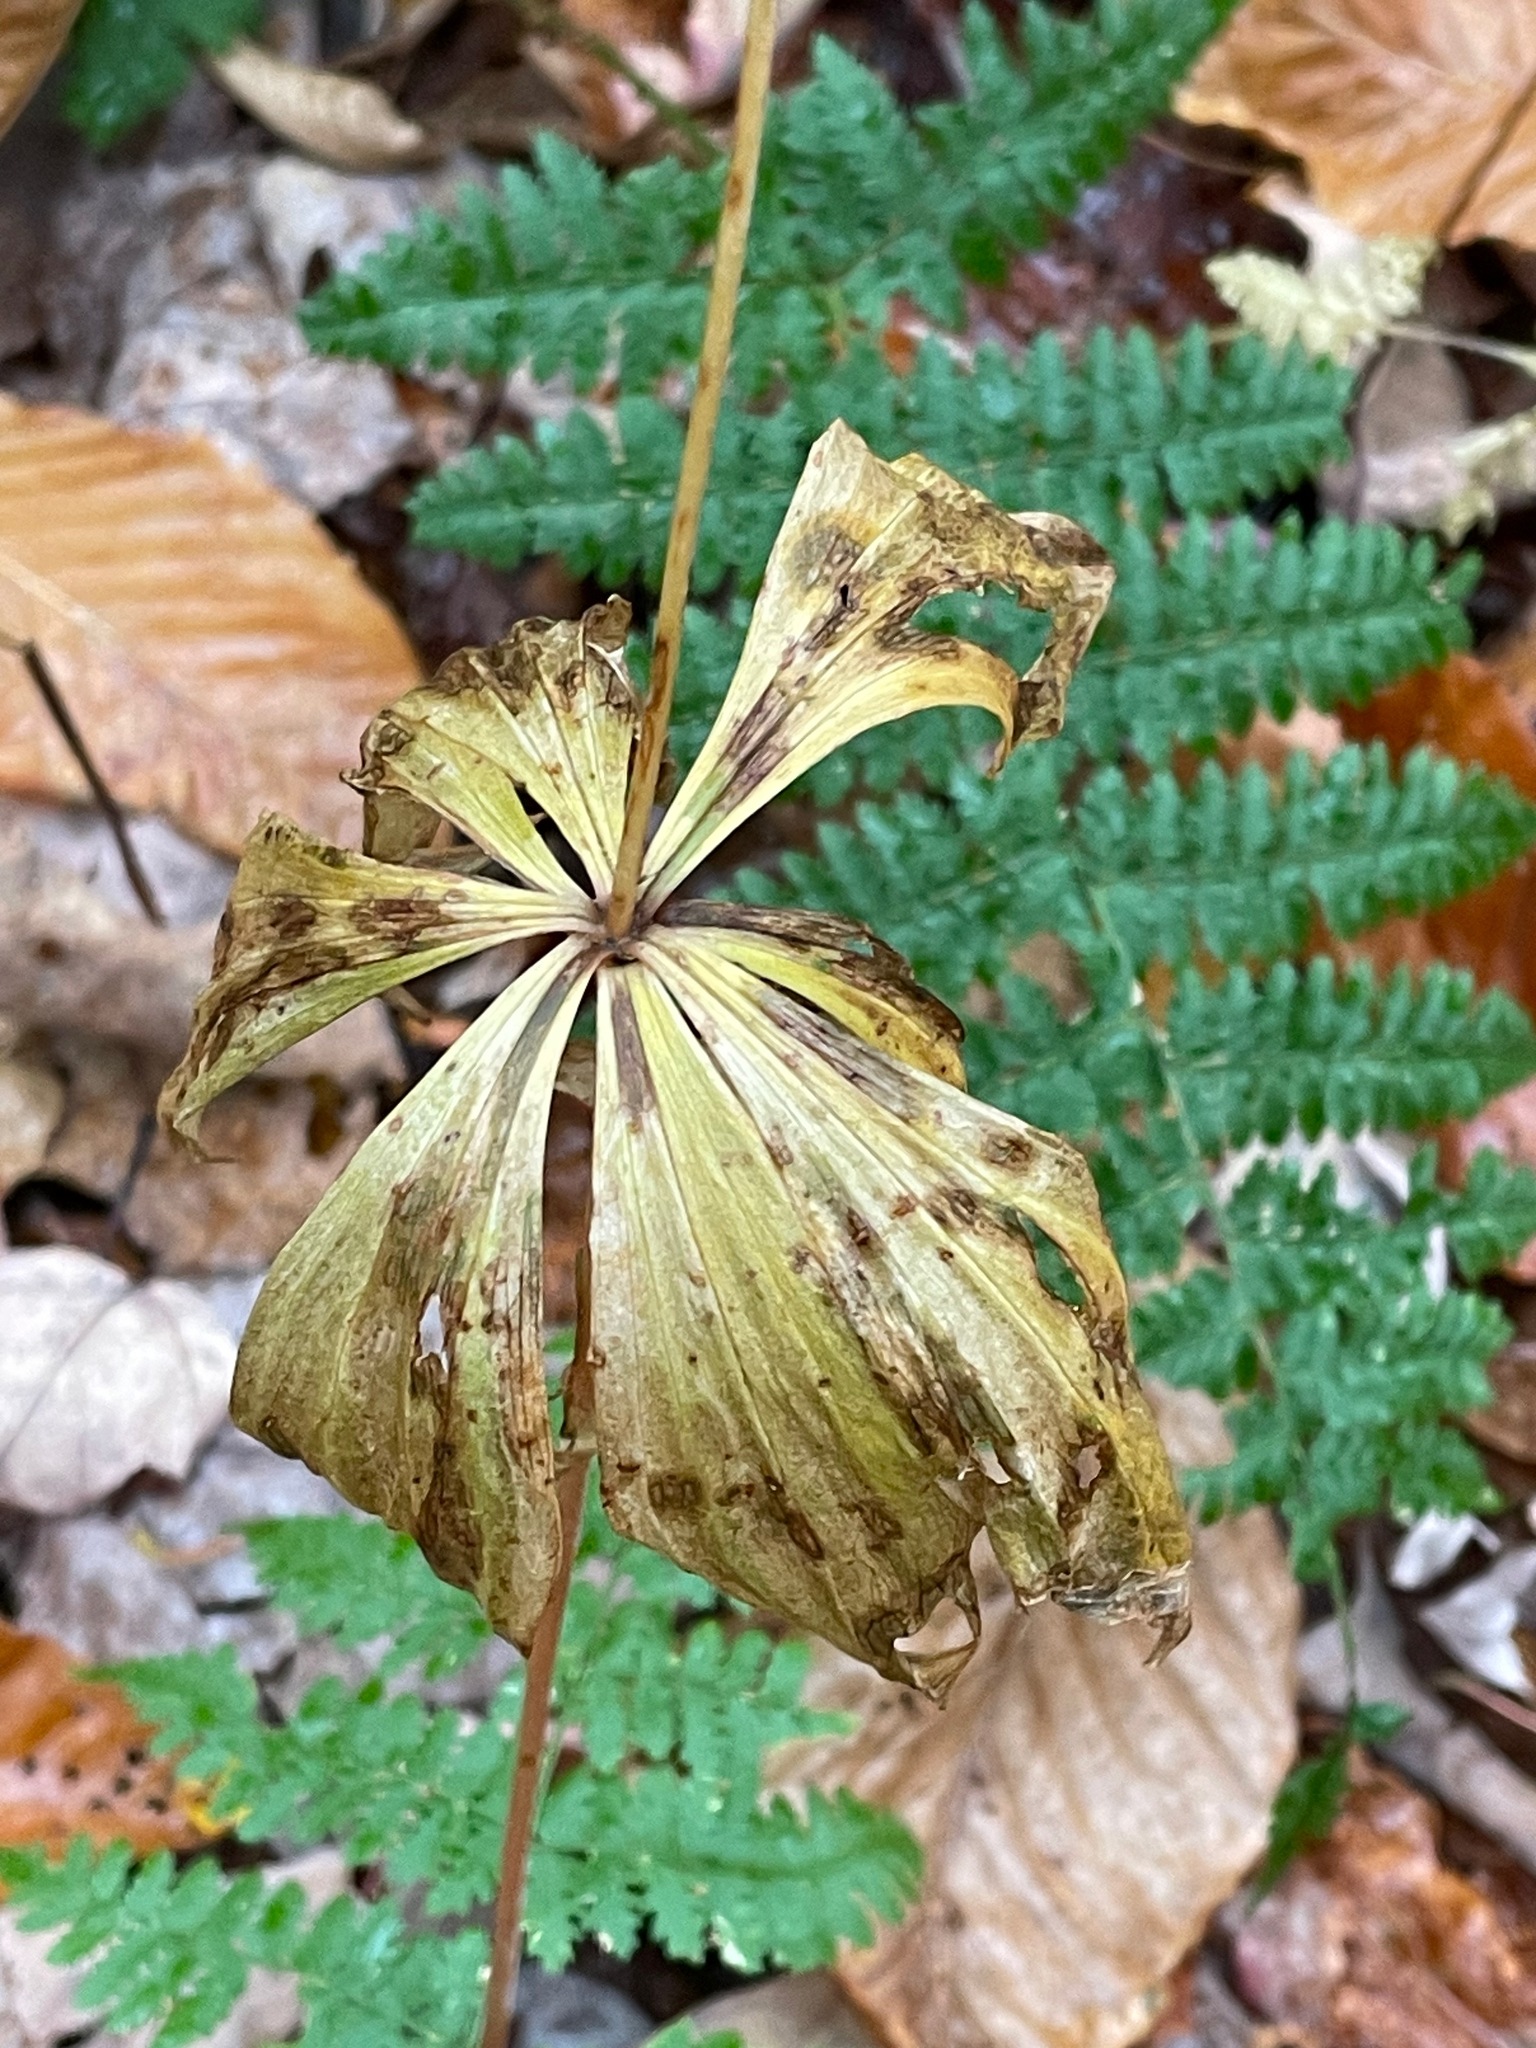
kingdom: Plantae
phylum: Tracheophyta
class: Liliopsida
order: Liliales
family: Liliaceae
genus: Medeola
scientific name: Medeola virginiana
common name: Indian cucumber-root
